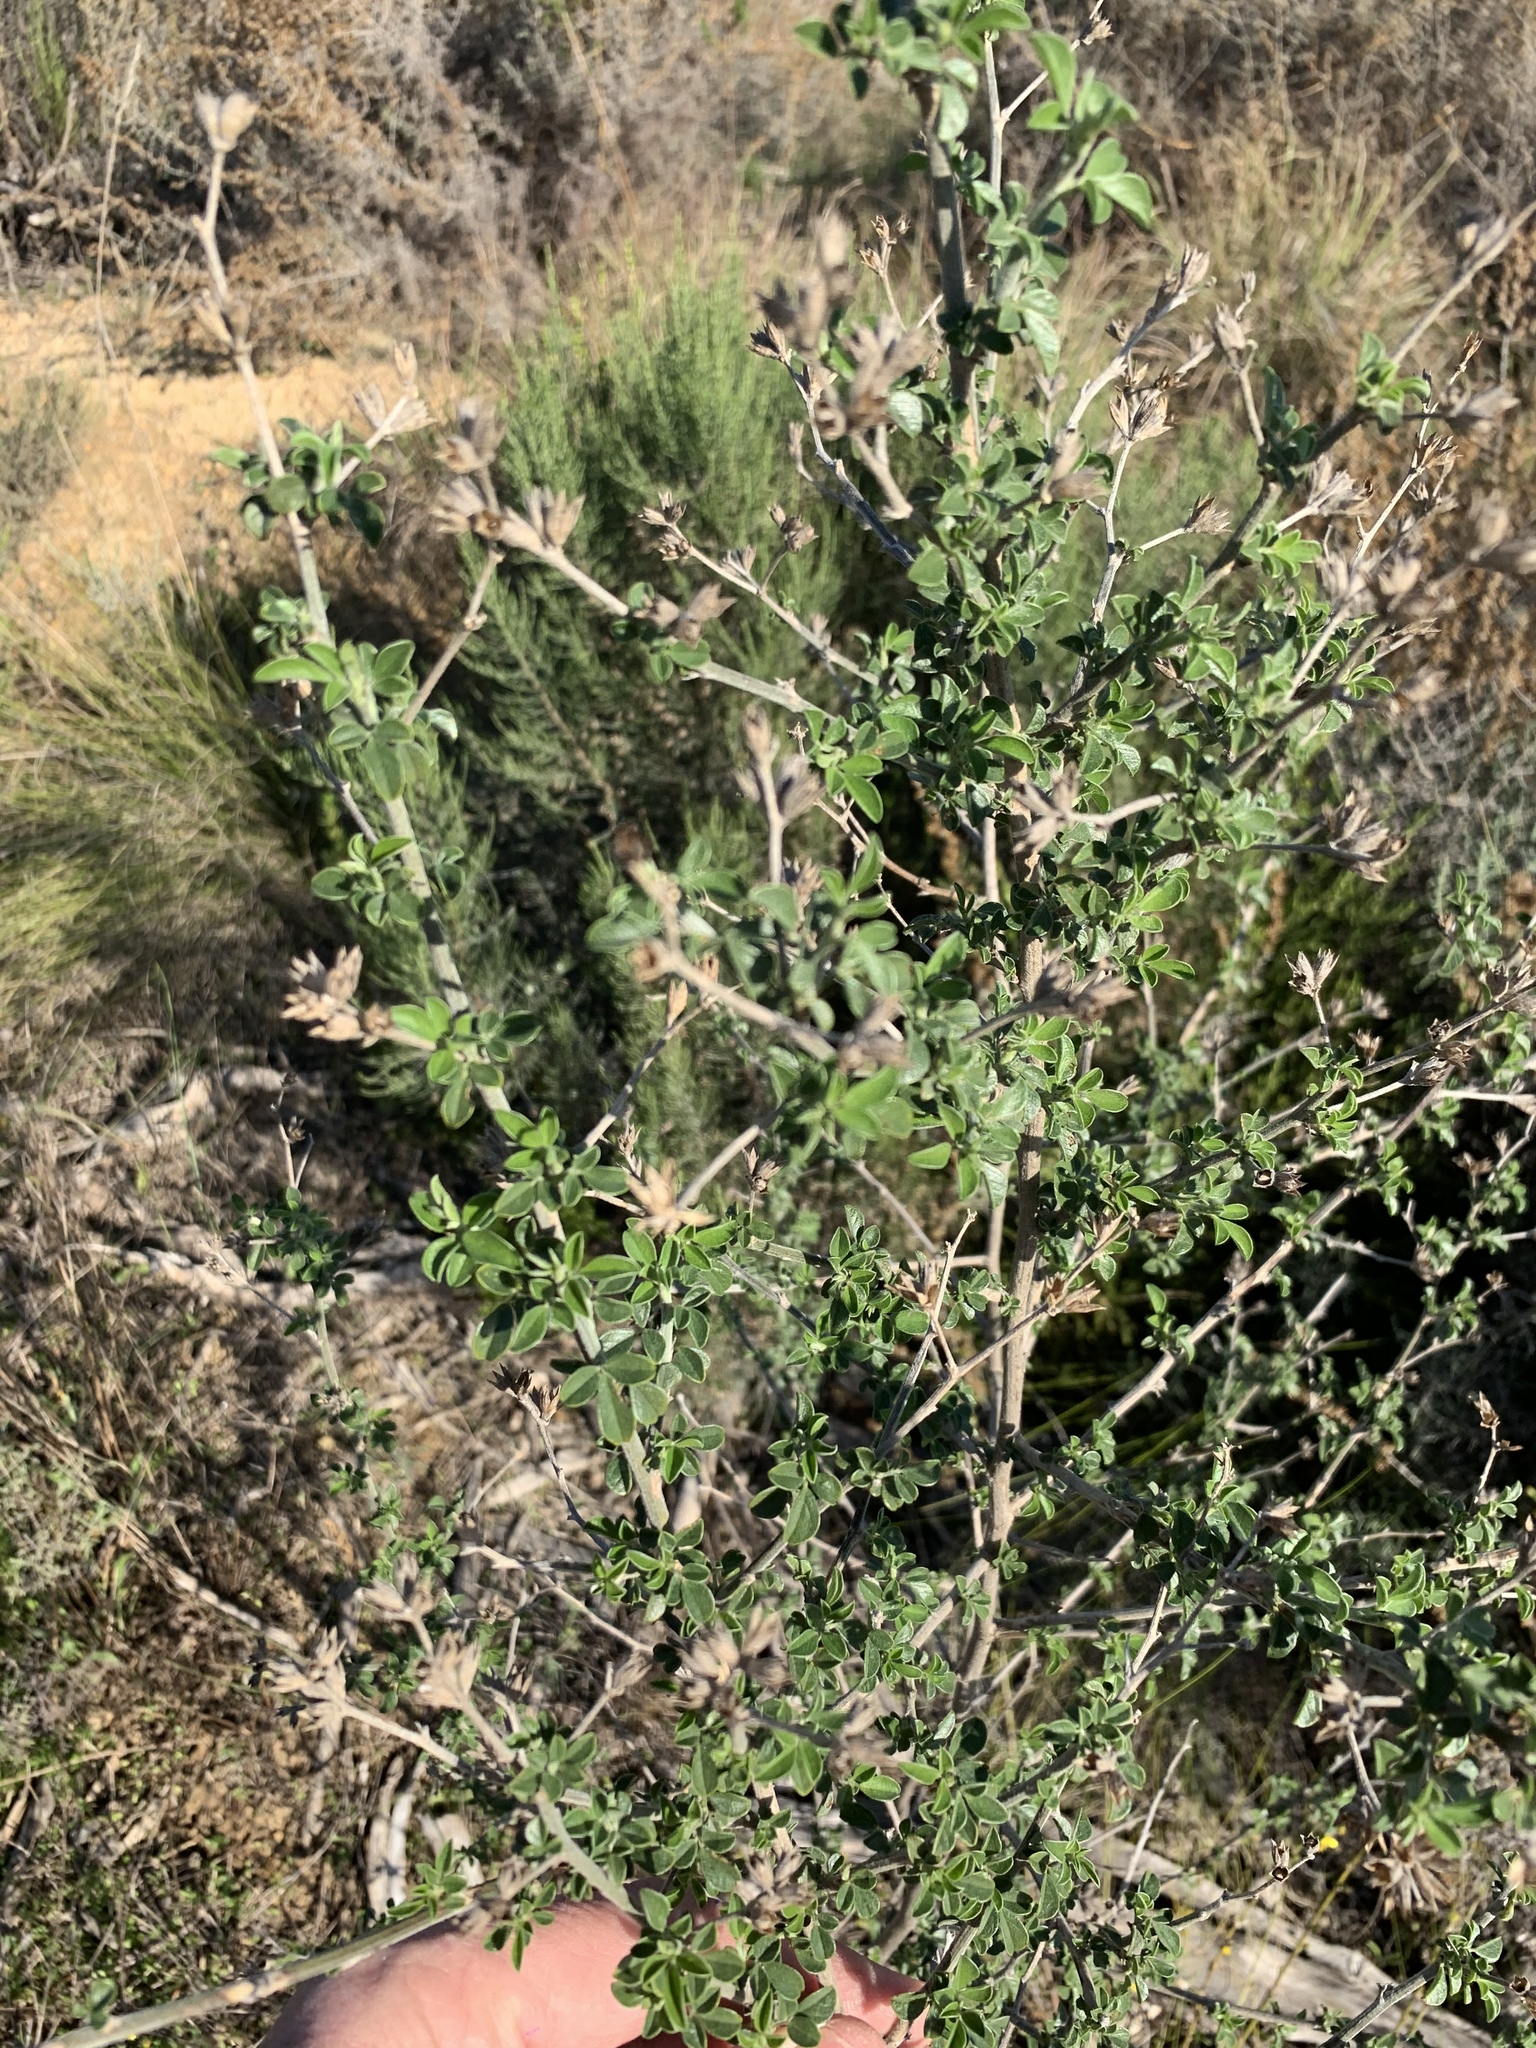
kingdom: Plantae
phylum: Tracheophyta
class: Magnoliopsida
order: Fabales
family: Fabaceae
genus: Psoralea
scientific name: Psoralea hirta
